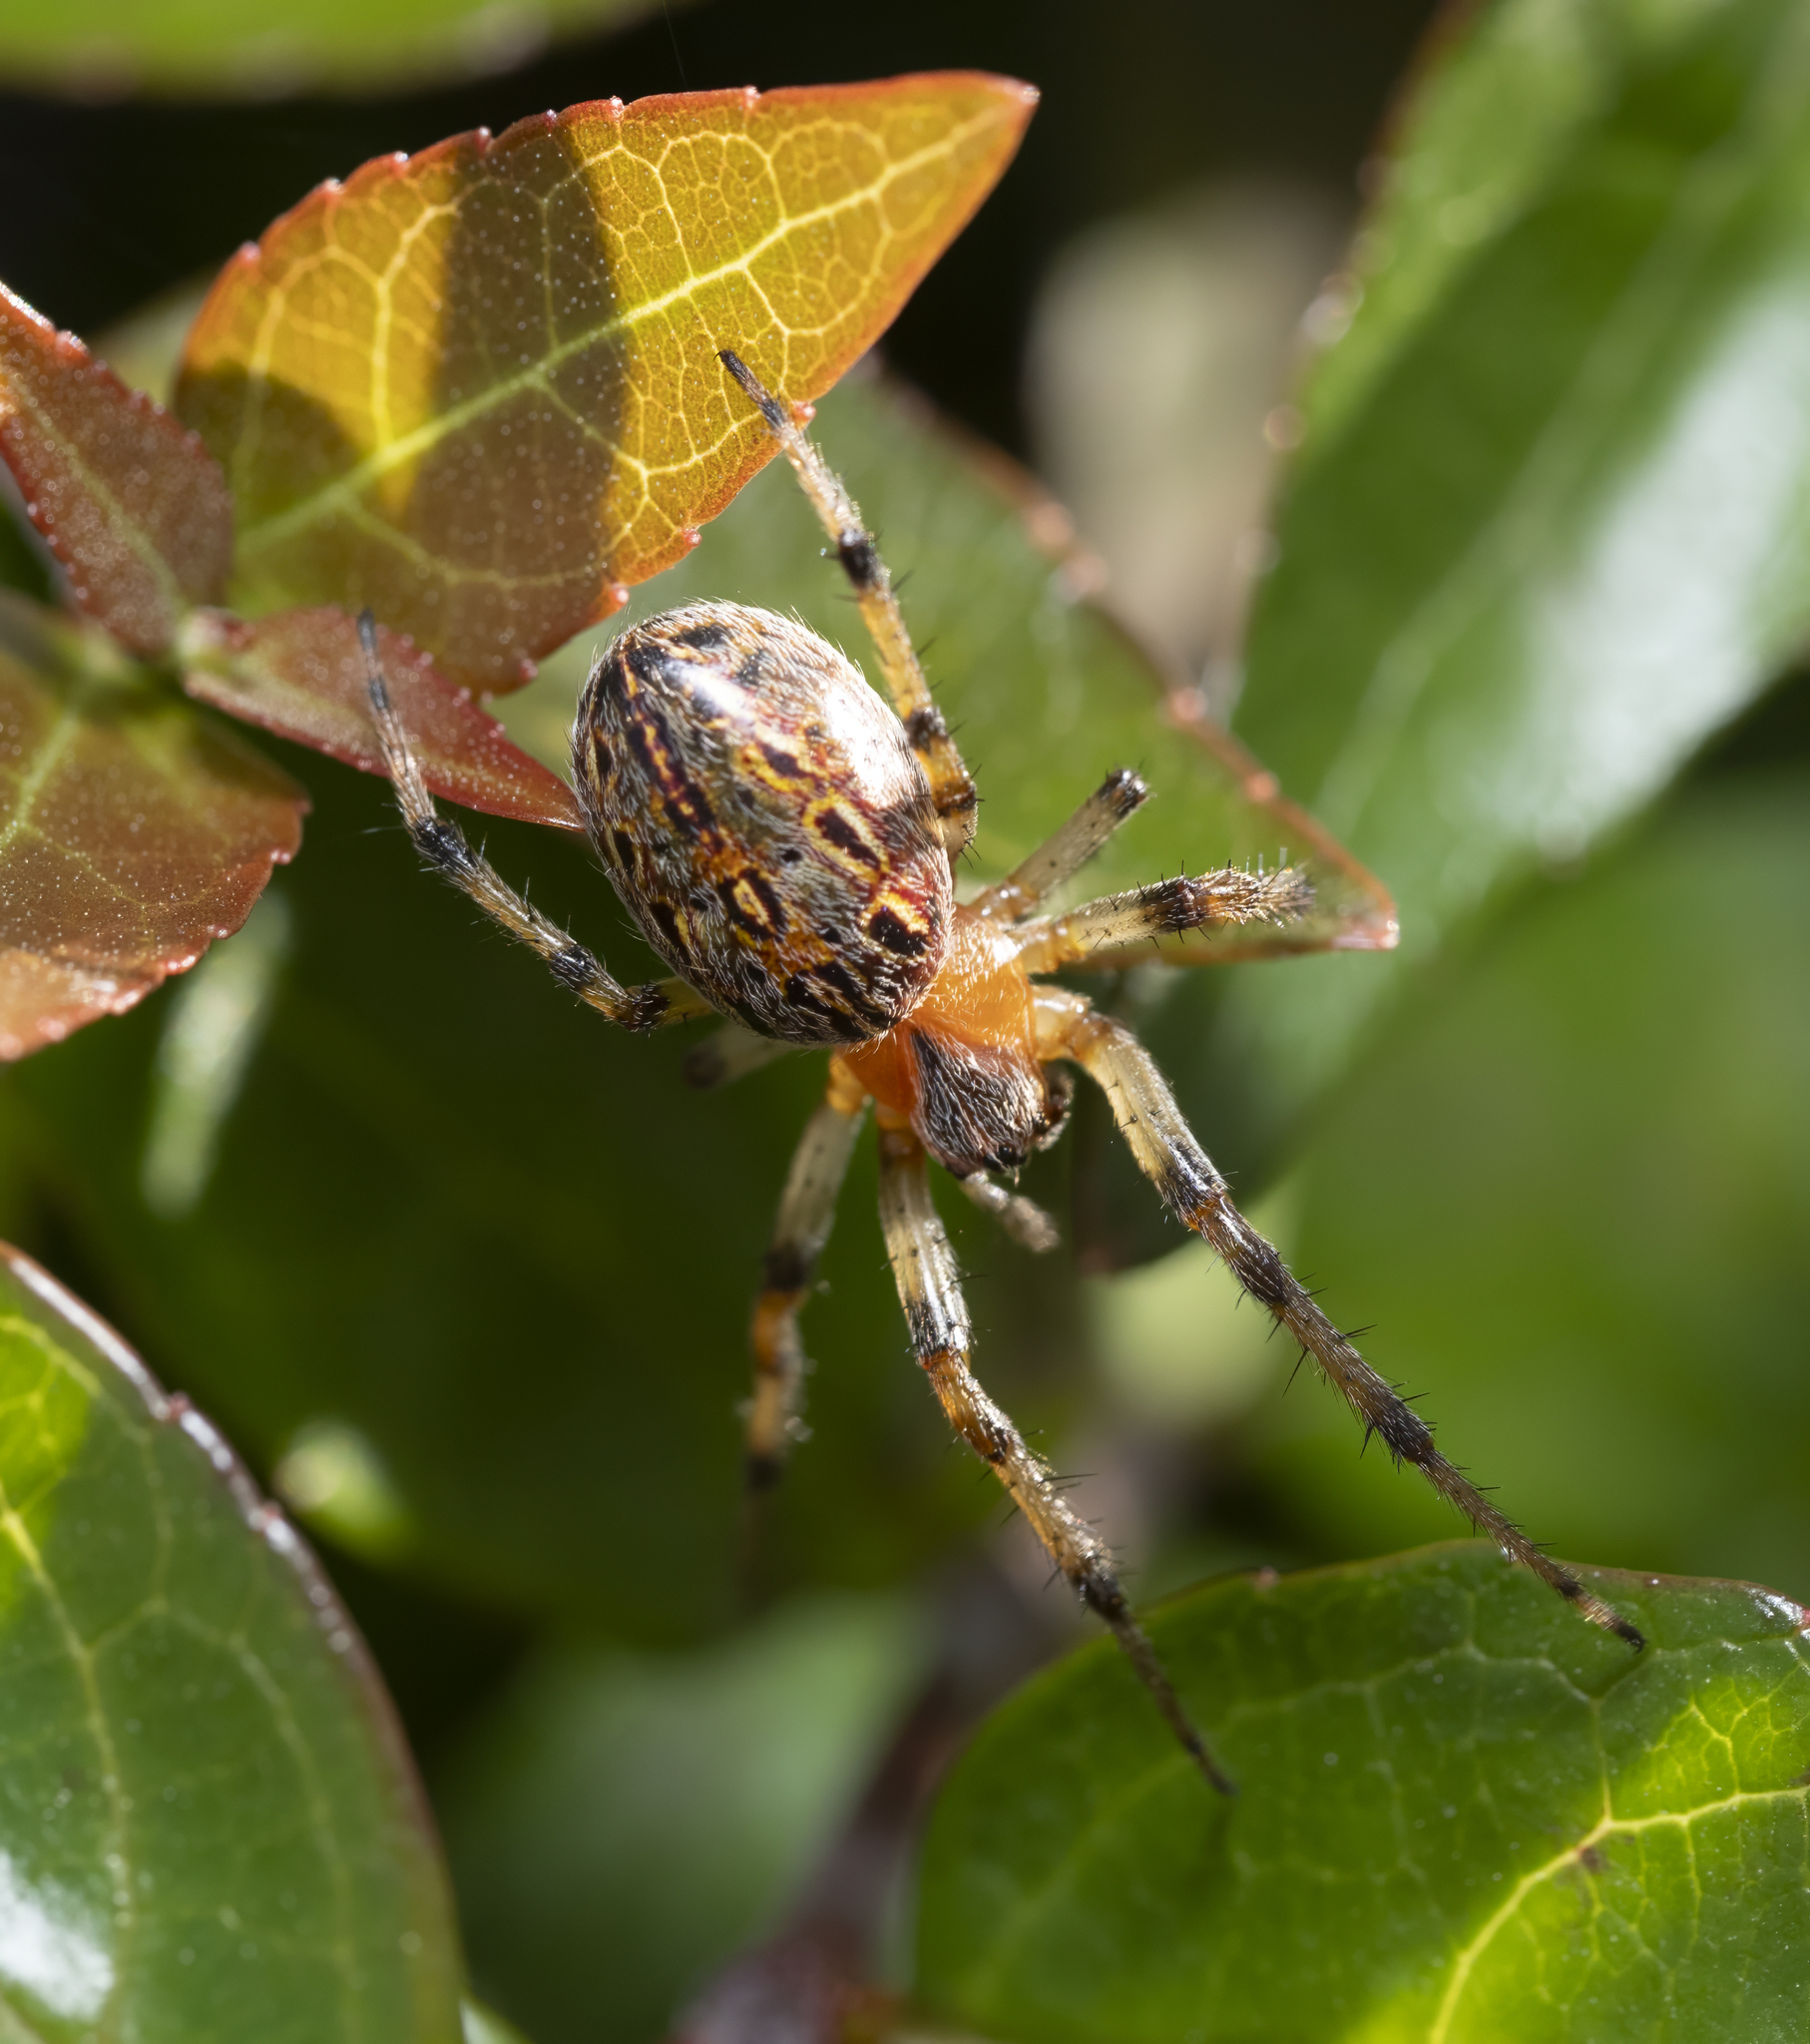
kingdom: Animalia
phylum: Arthropoda
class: Arachnida
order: Araneae
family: Araneidae
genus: Alpaida
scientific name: Alpaida veniliae
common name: Orb weavers
